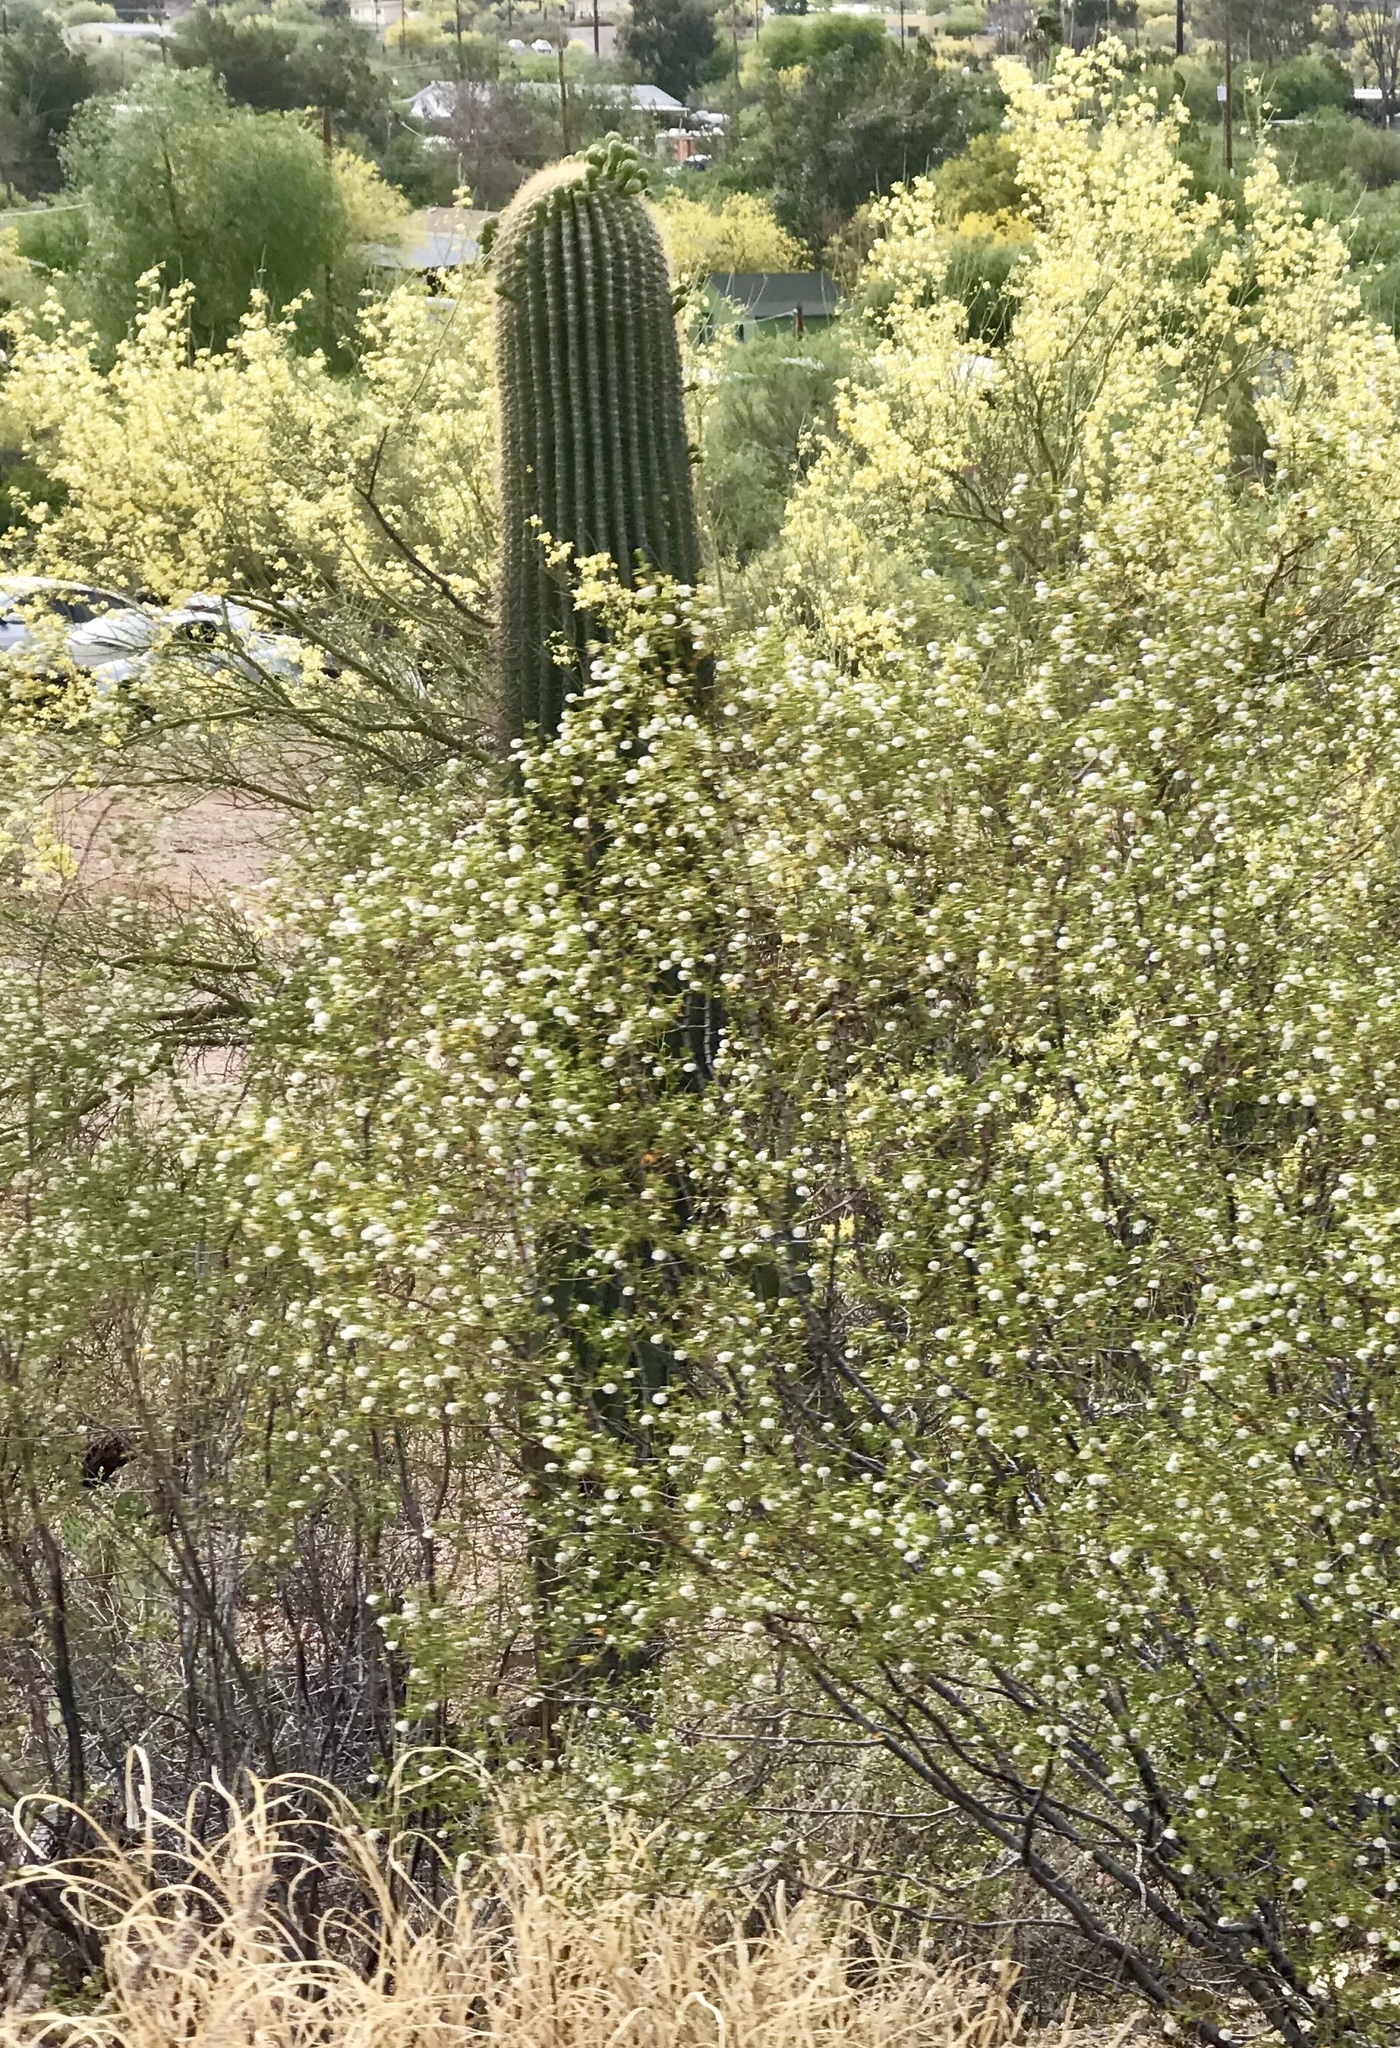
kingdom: Plantae
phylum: Tracheophyta
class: Magnoliopsida
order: Caryophyllales
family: Cactaceae
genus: Carnegiea
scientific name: Carnegiea gigantea
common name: Saguaro
